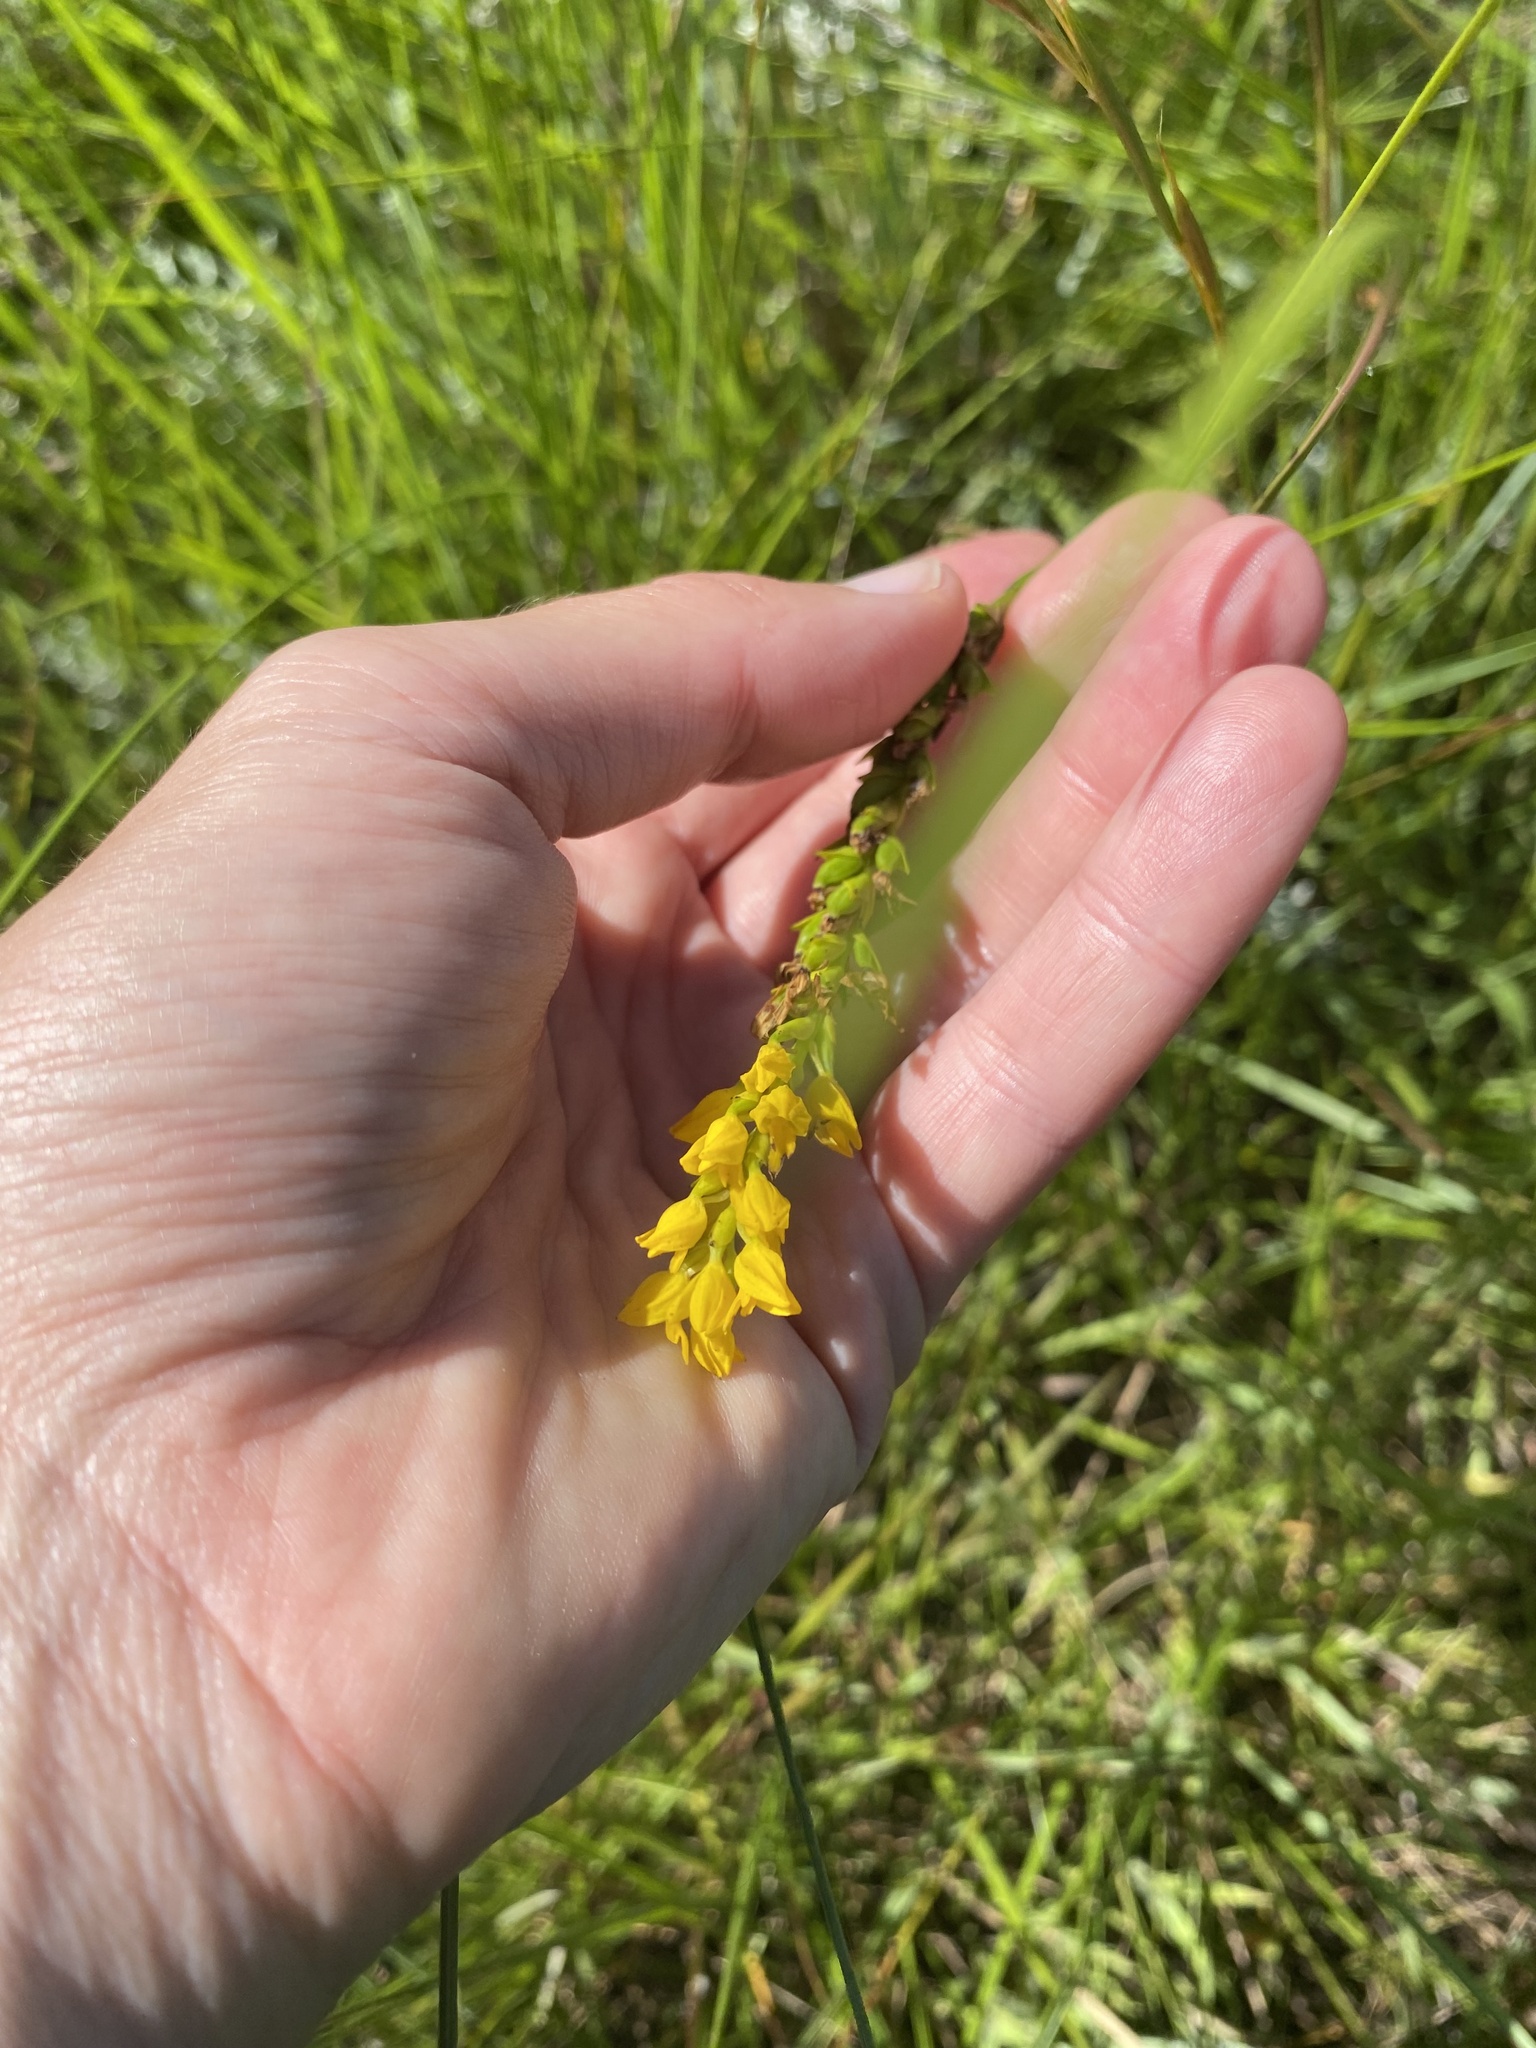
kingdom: Plantae
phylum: Tracheophyta
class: Liliopsida
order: Asparagales
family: Orchidaceae
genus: Schizochilus
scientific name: Schizochilus zeyheri
